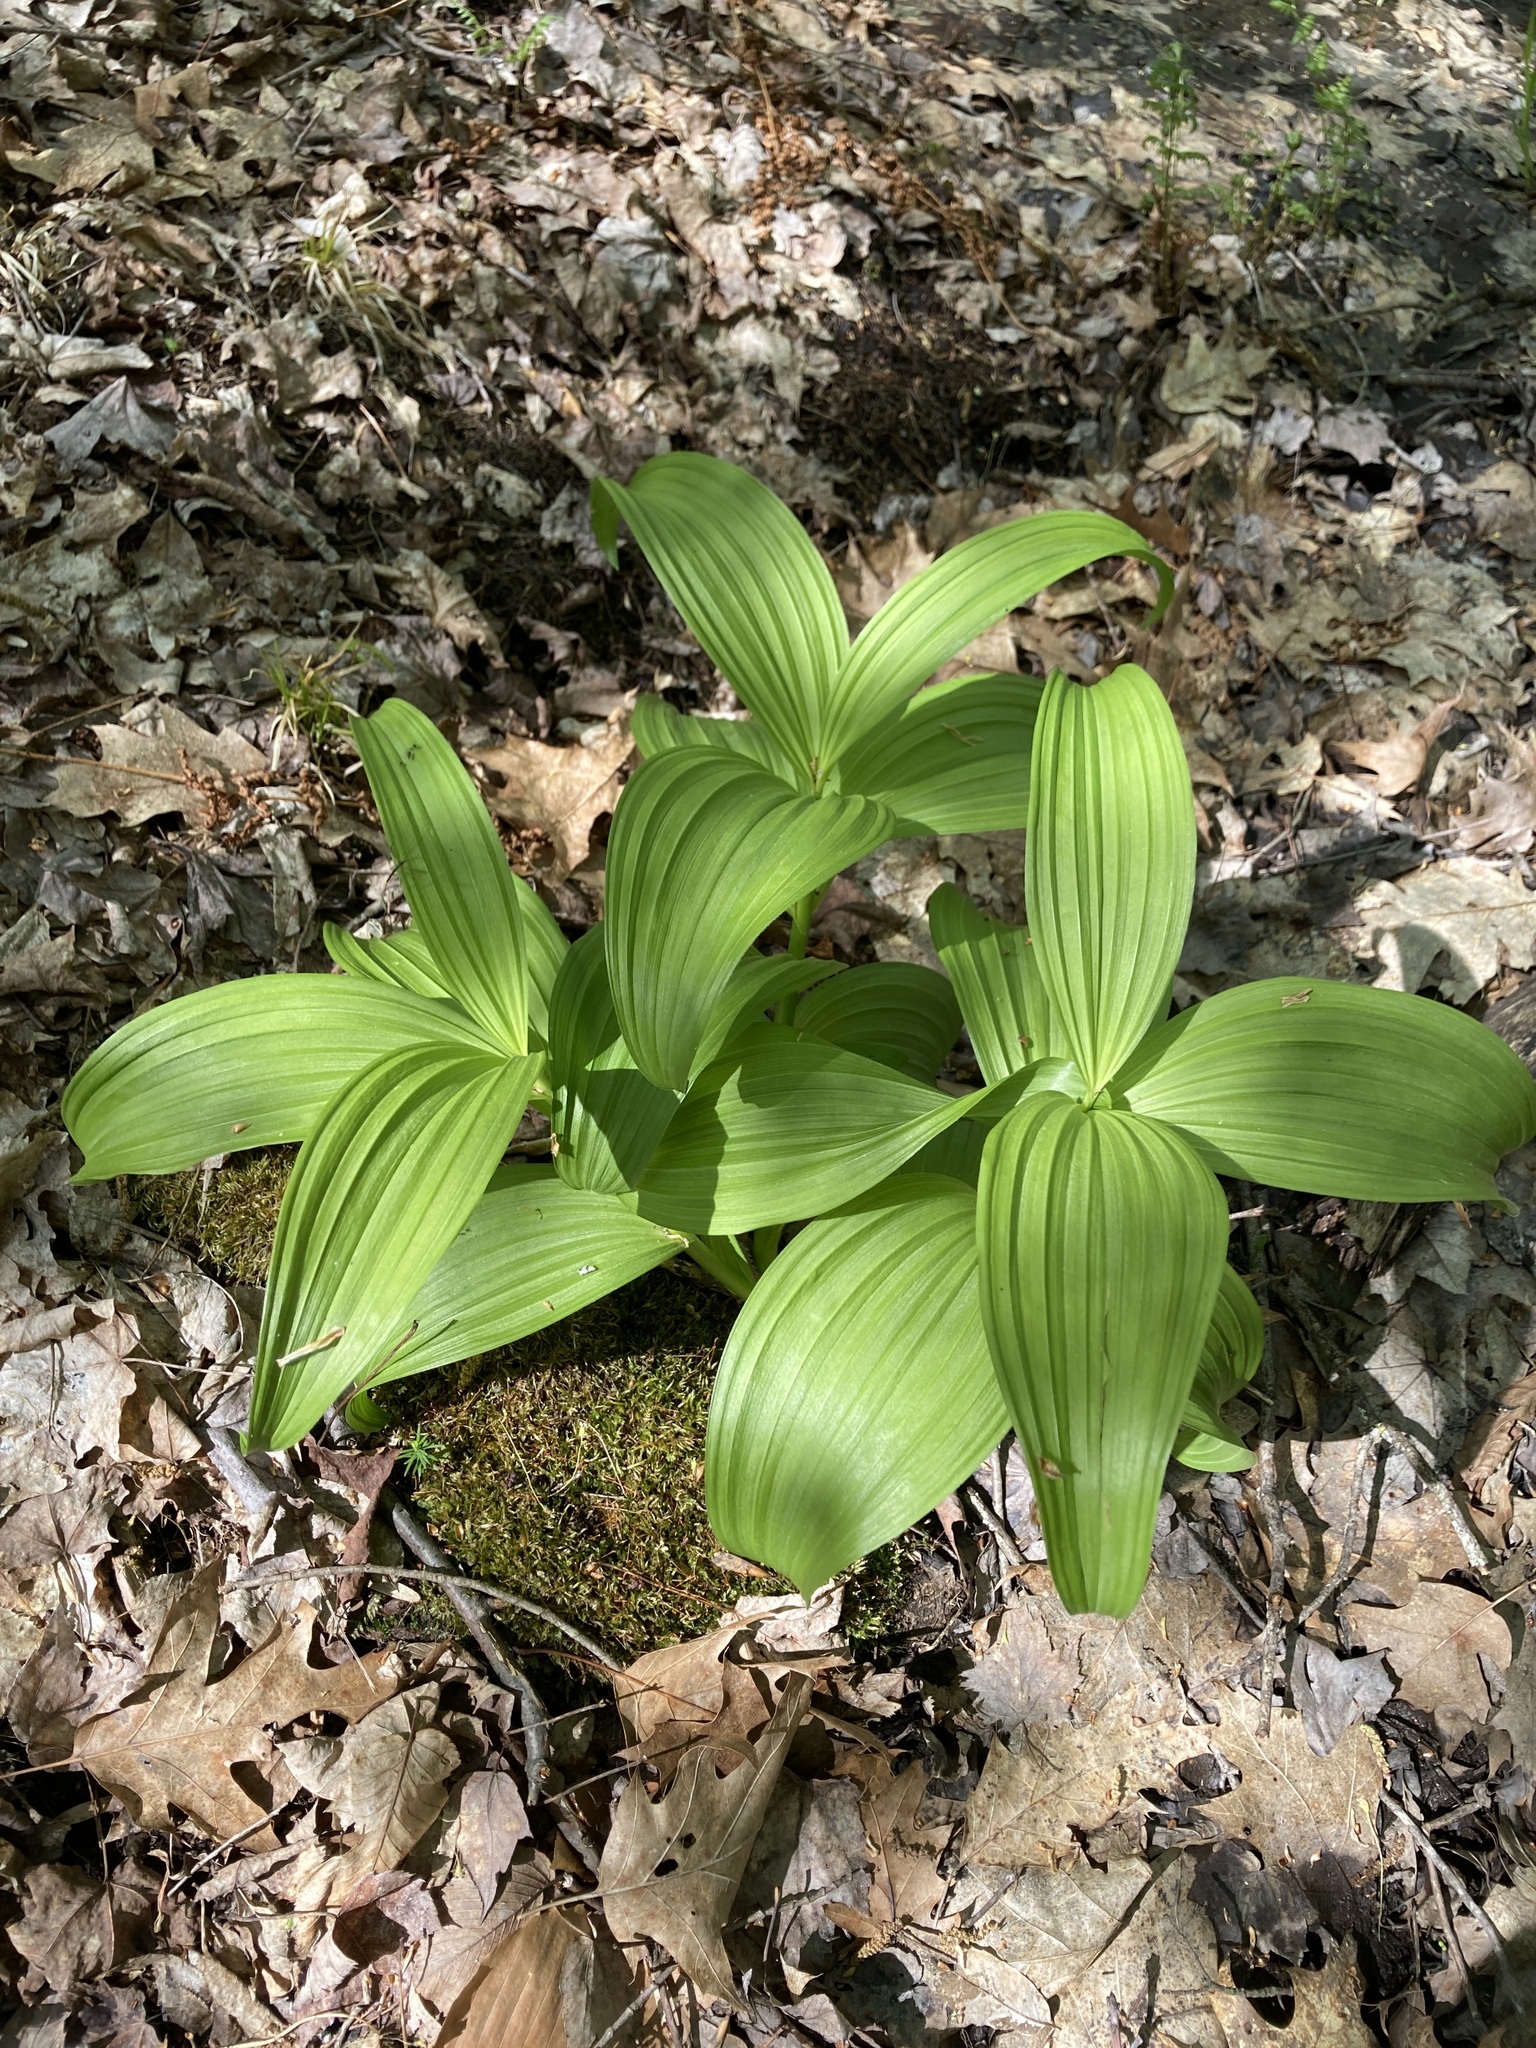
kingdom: Plantae
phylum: Tracheophyta
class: Liliopsida
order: Liliales
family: Melanthiaceae
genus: Veratrum
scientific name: Veratrum viride
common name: American false hellebore
